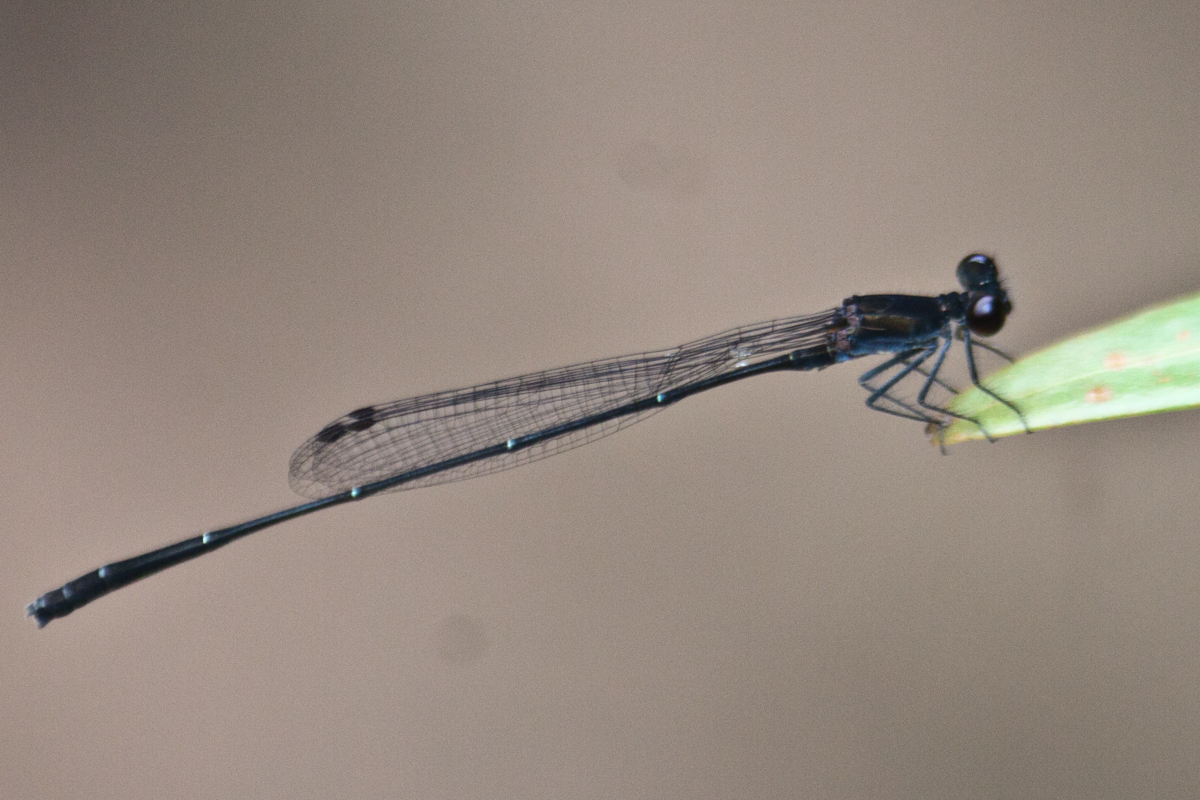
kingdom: Animalia
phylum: Arthropoda
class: Insecta
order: Odonata
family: Platycnemididae
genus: Prodasineura
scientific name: Prodasineura autumnalis
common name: Black threadtail
